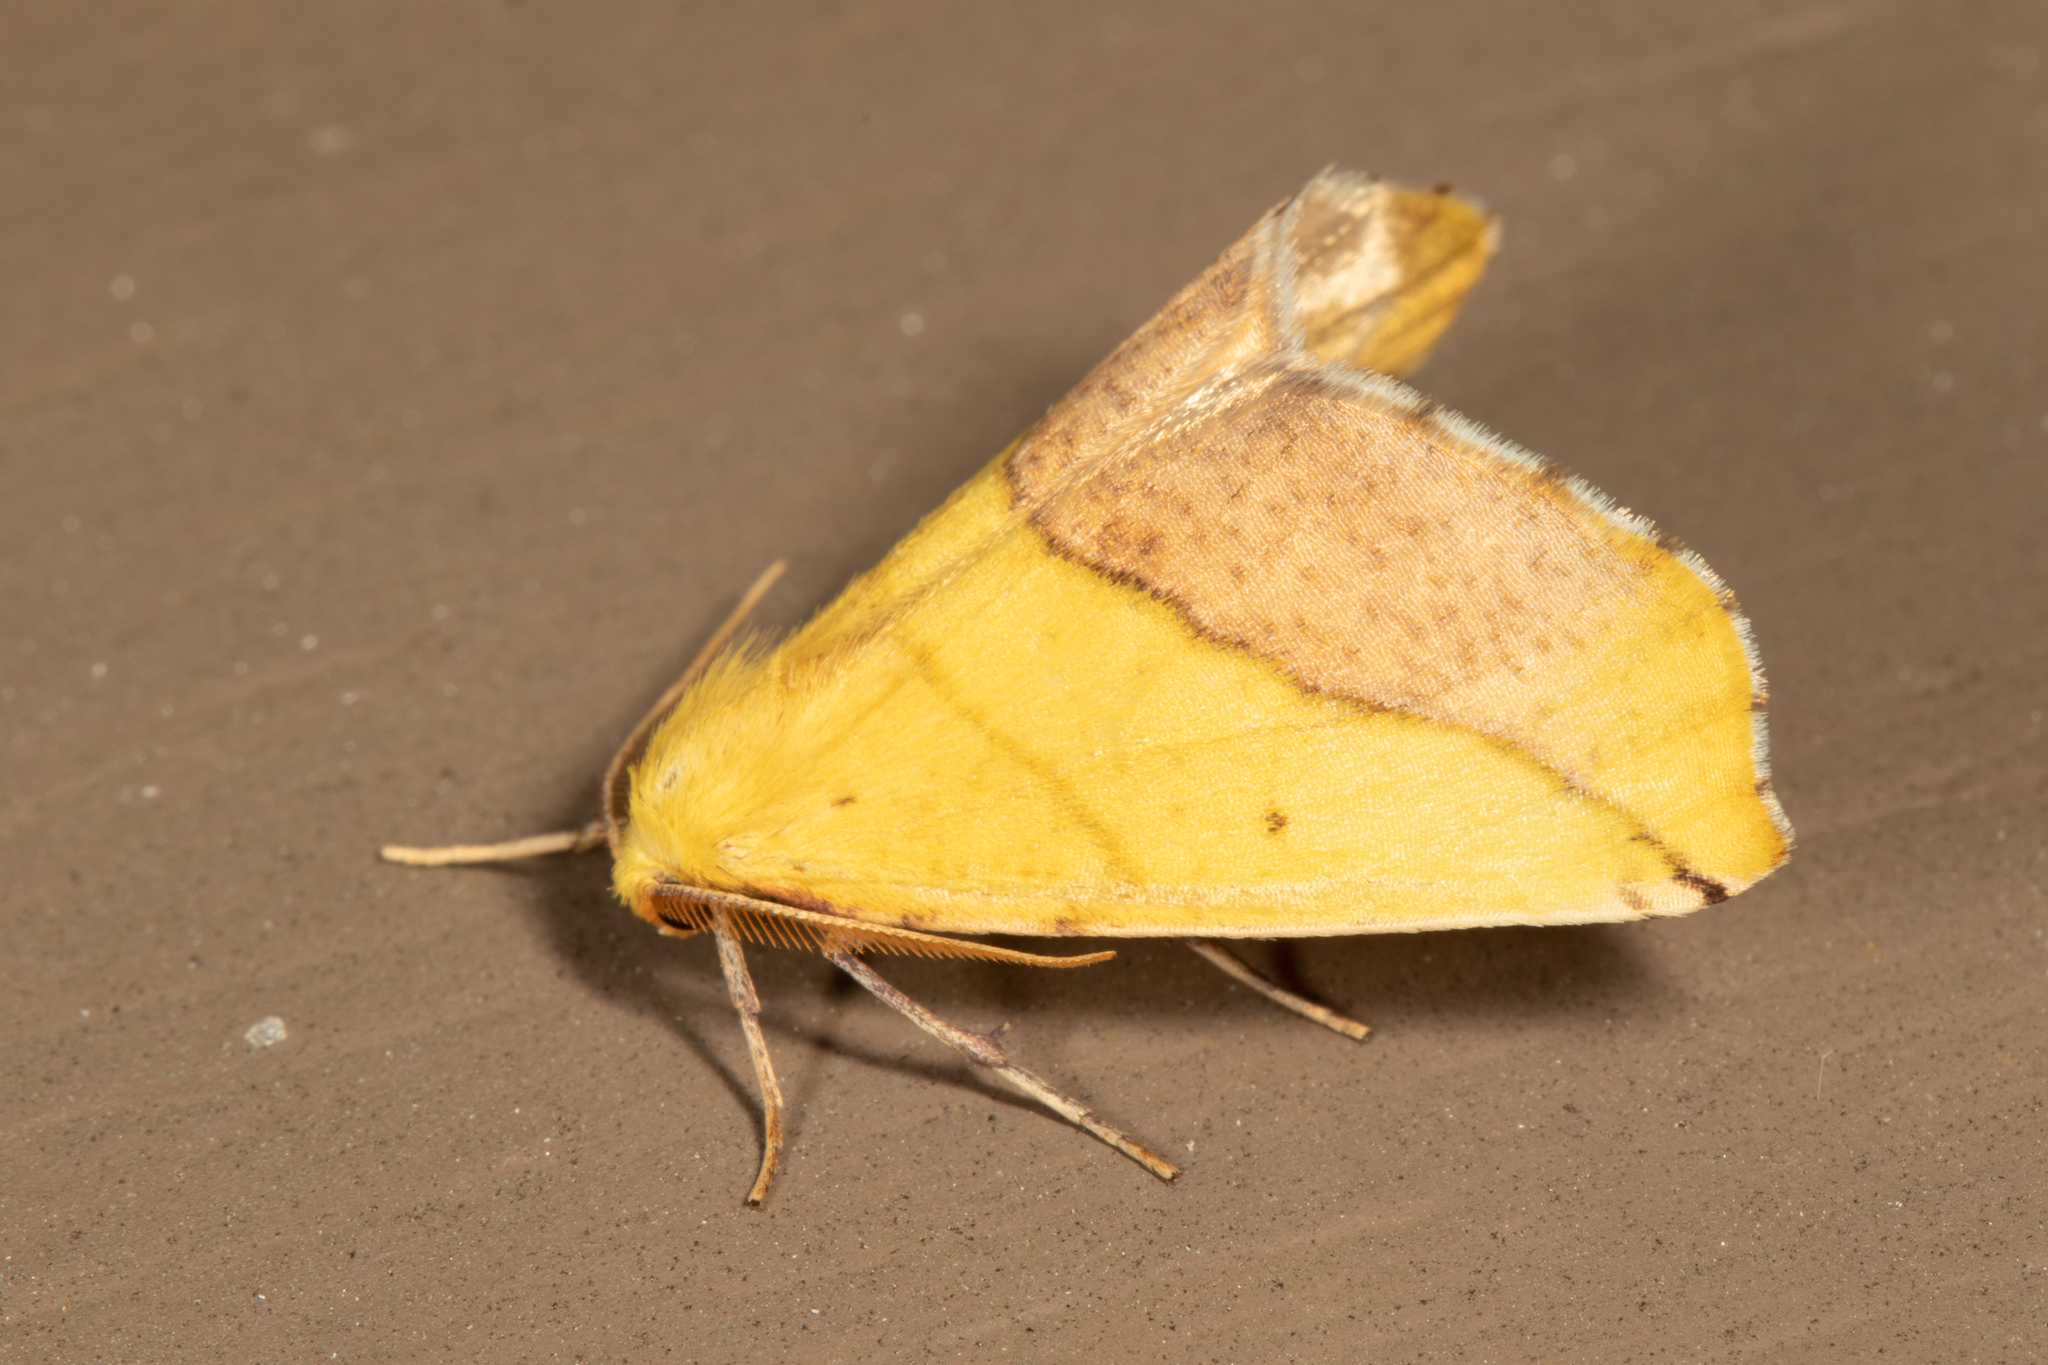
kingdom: Animalia
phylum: Arthropoda
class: Insecta
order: Lepidoptera
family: Geometridae
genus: Sicya
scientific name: Sicya macularia
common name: Sharp-lined yellow
